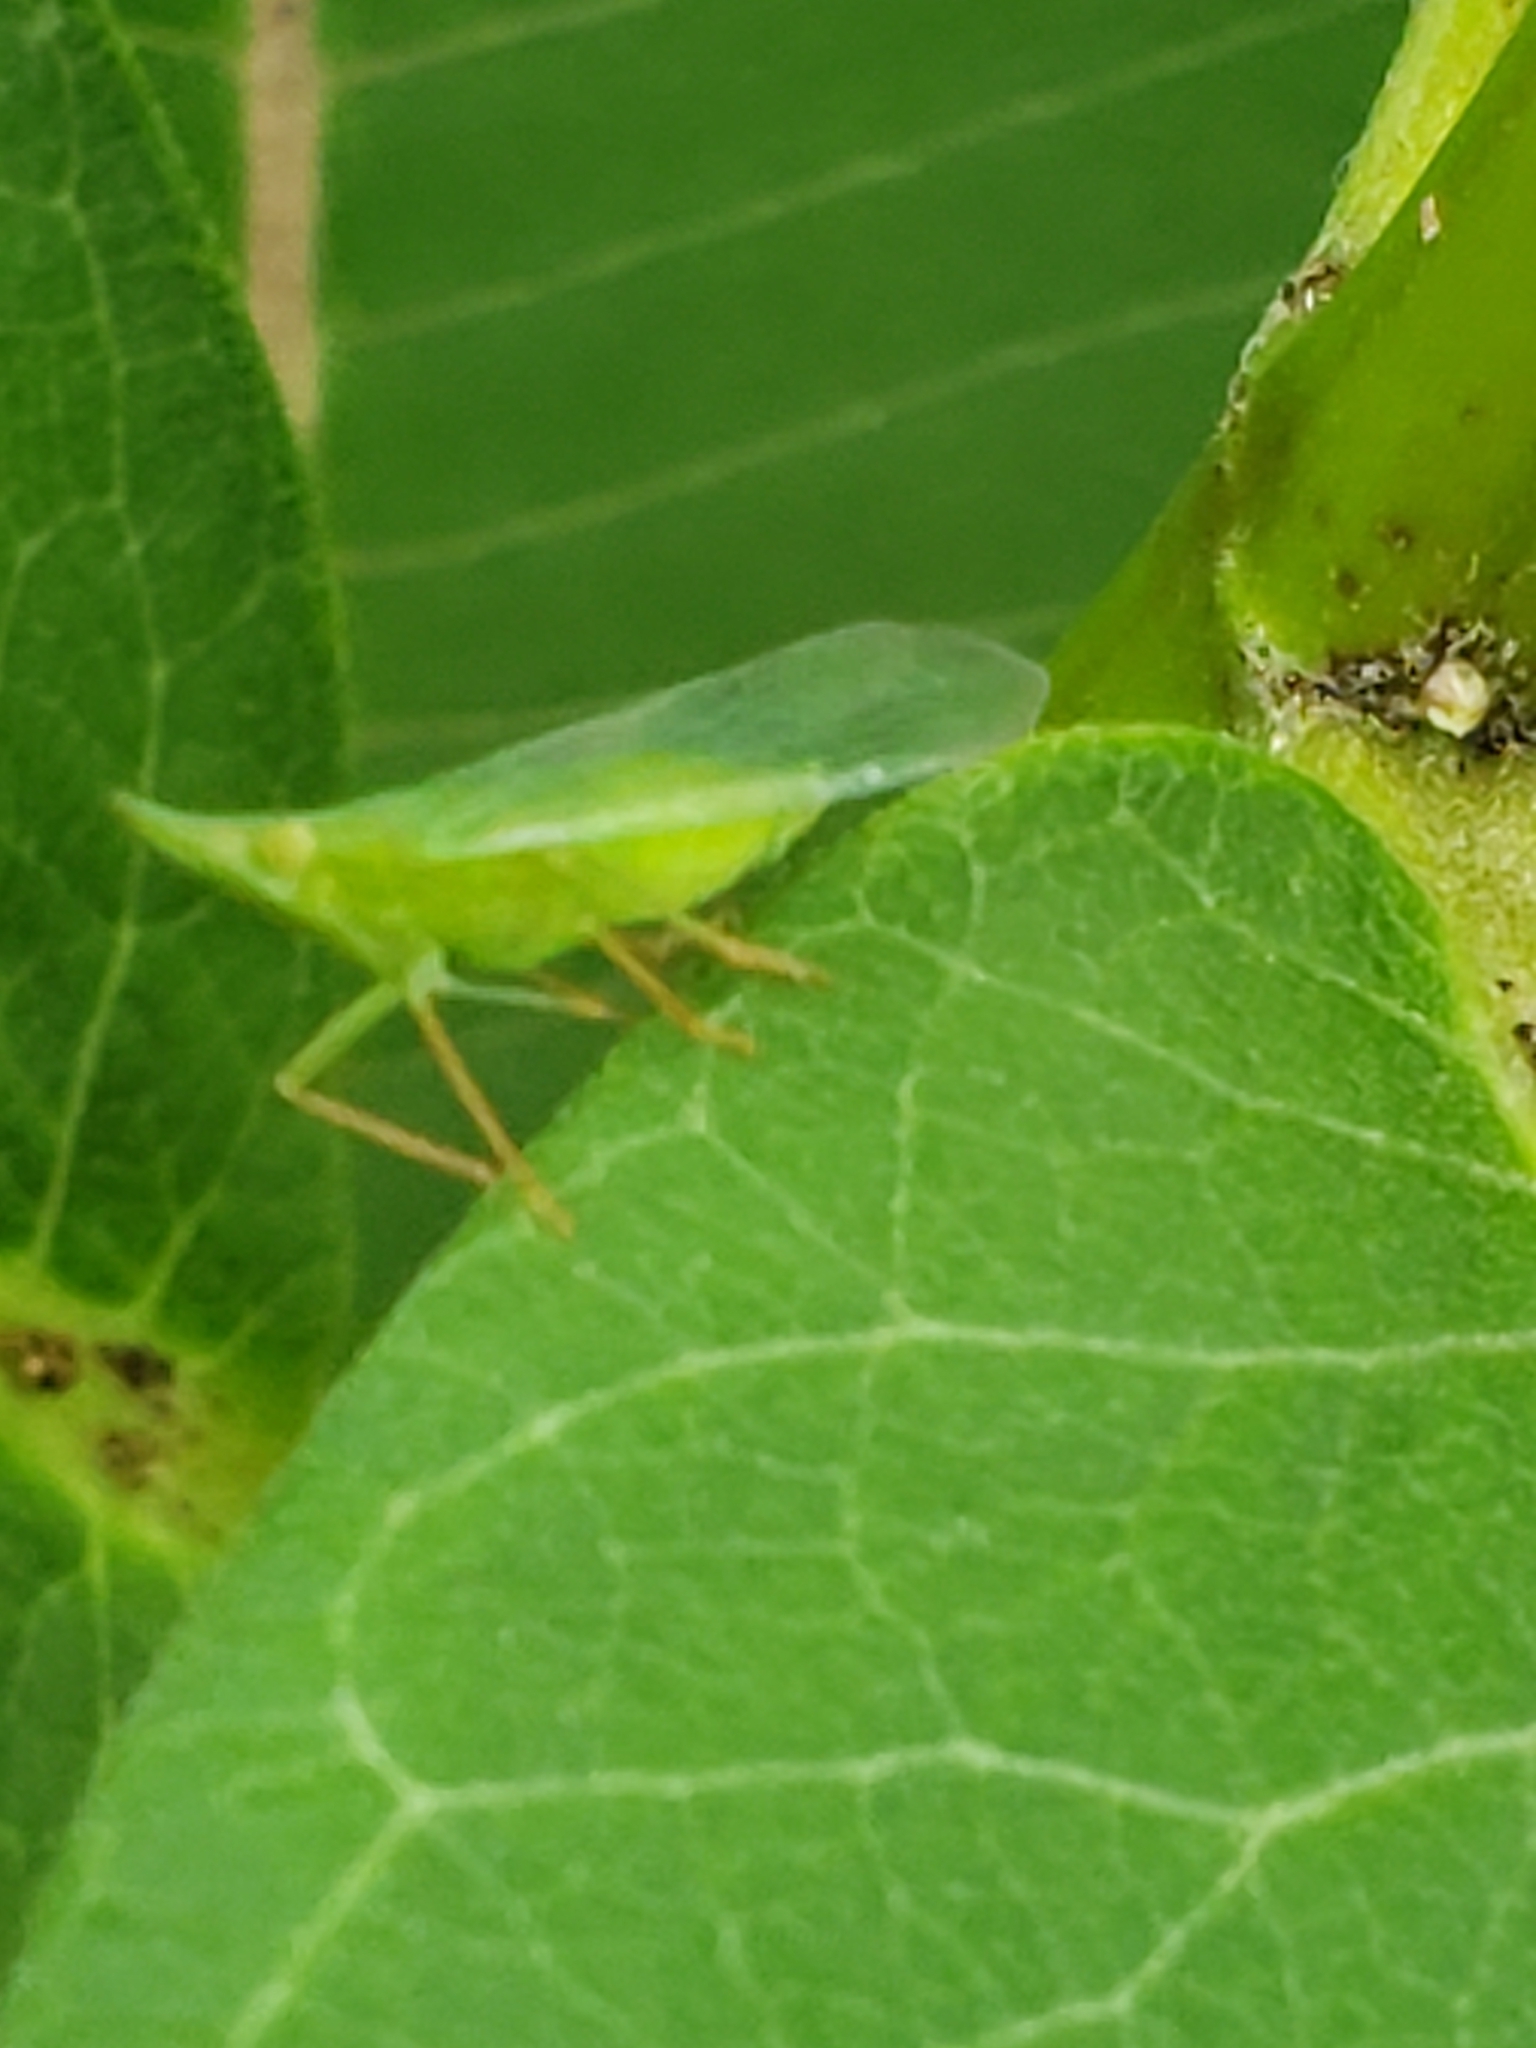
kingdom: Animalia
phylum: Arthropoda
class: Insecta
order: Hemiptera
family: Dictyopharidae
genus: Rhynchomitra
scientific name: Rhynchomitra microrhina
